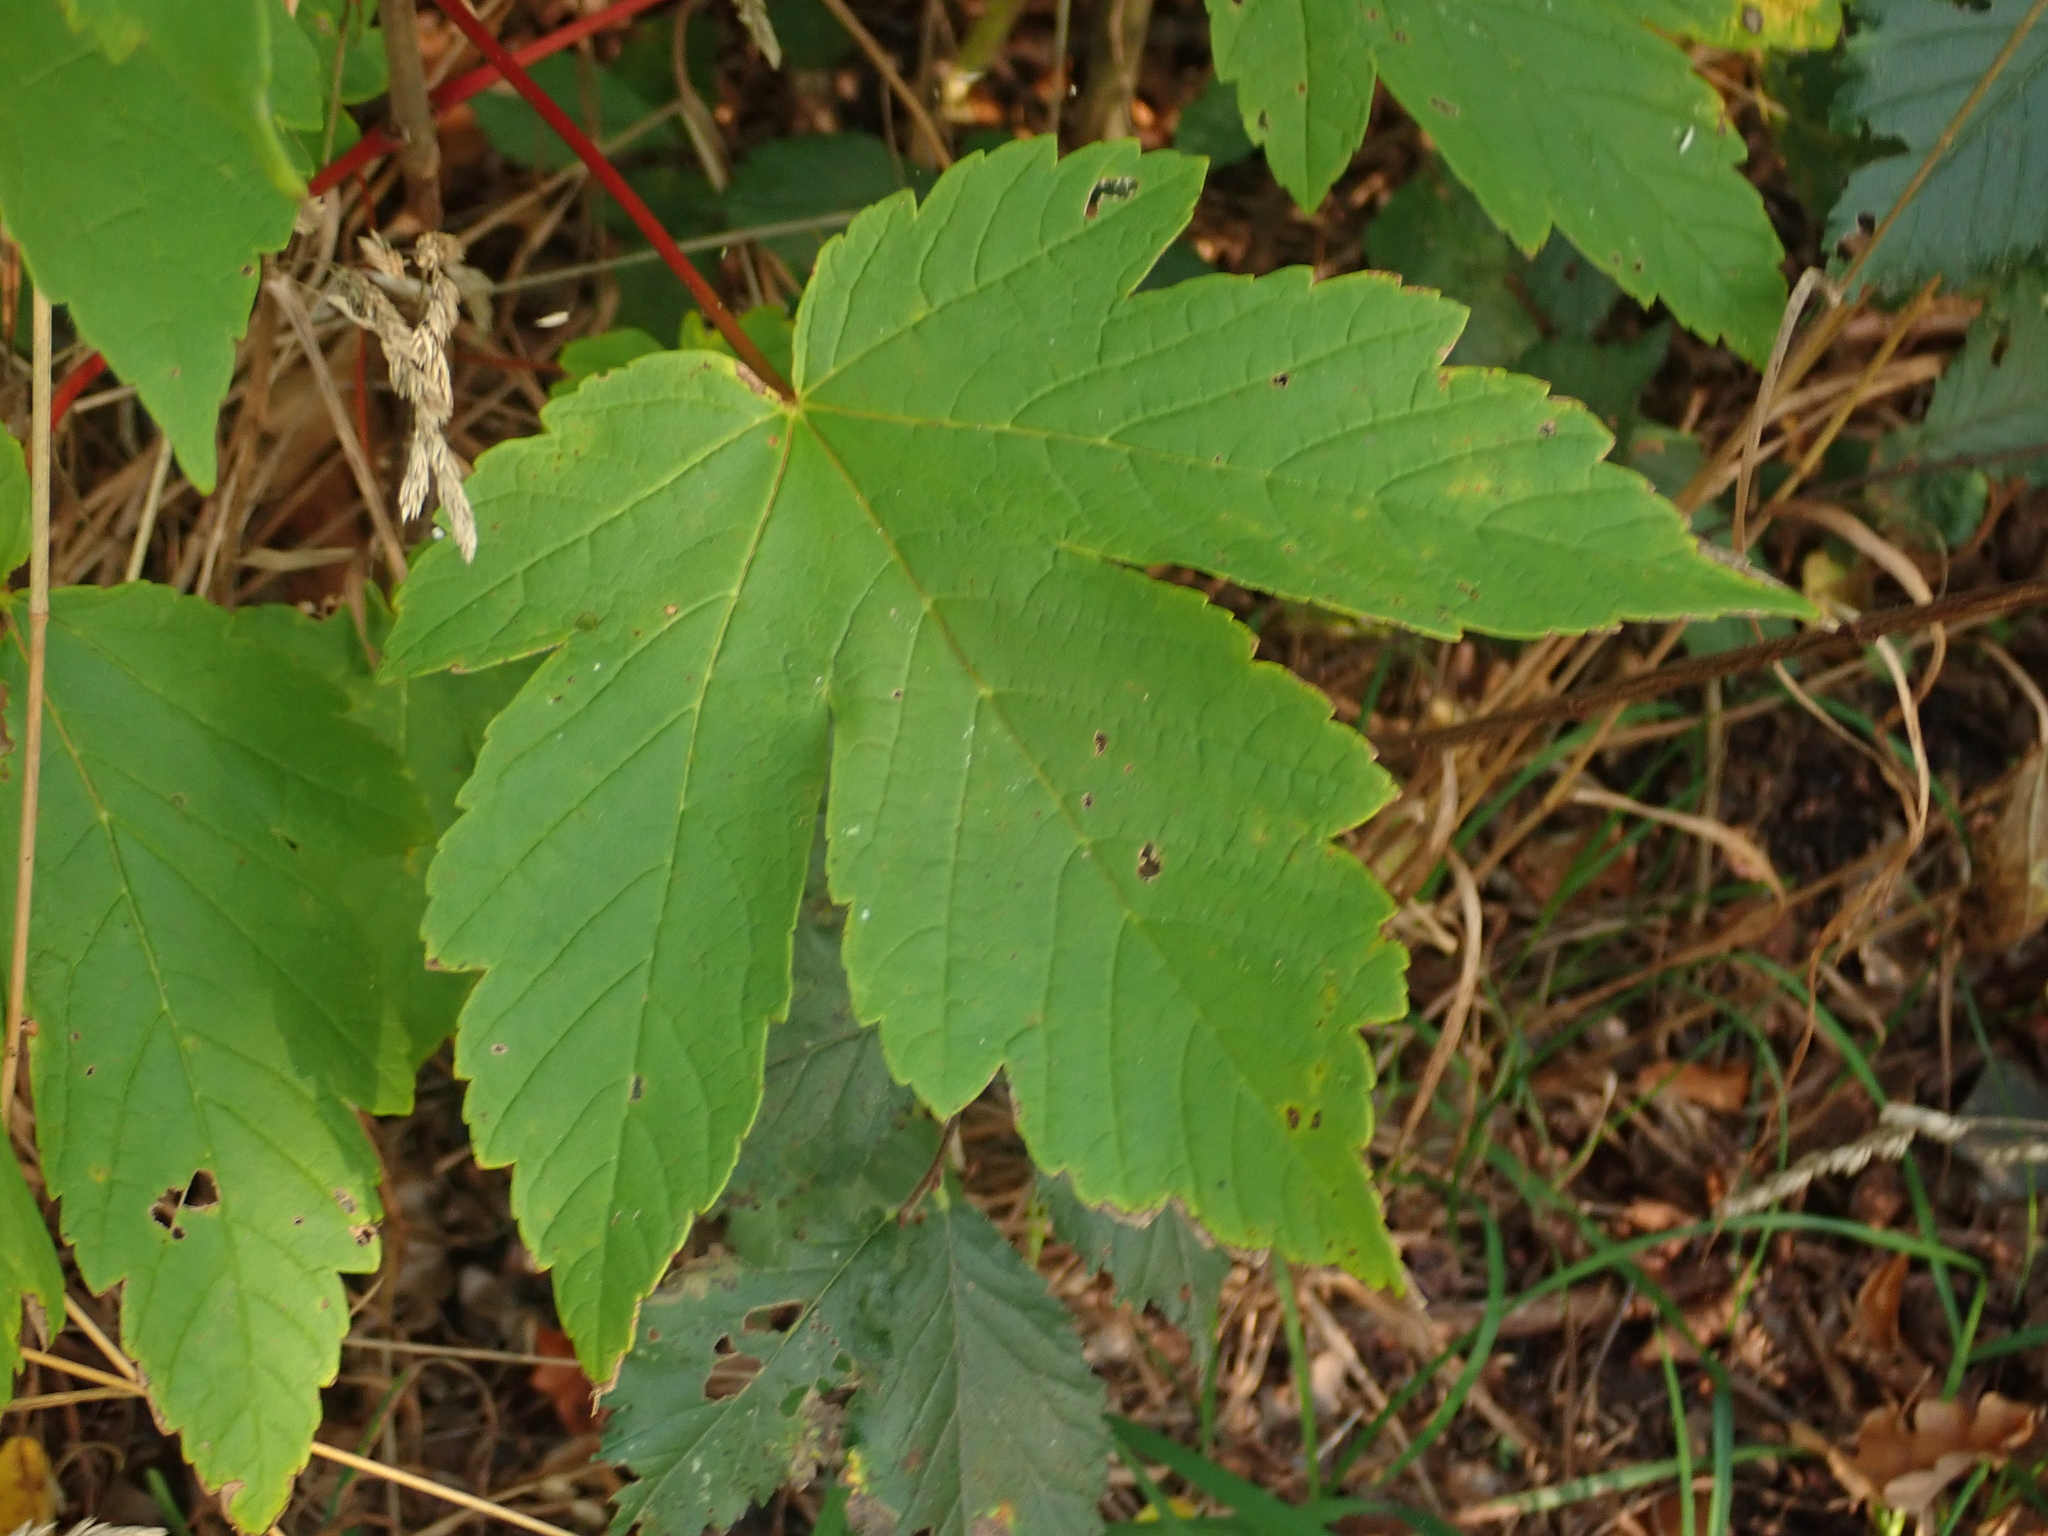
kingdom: Plantae
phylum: Tracheophyta
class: Magnoliopsida
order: Sapindales
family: Sapindaceae
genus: Acer
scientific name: Acer pseudoplatanus
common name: Sycamore
